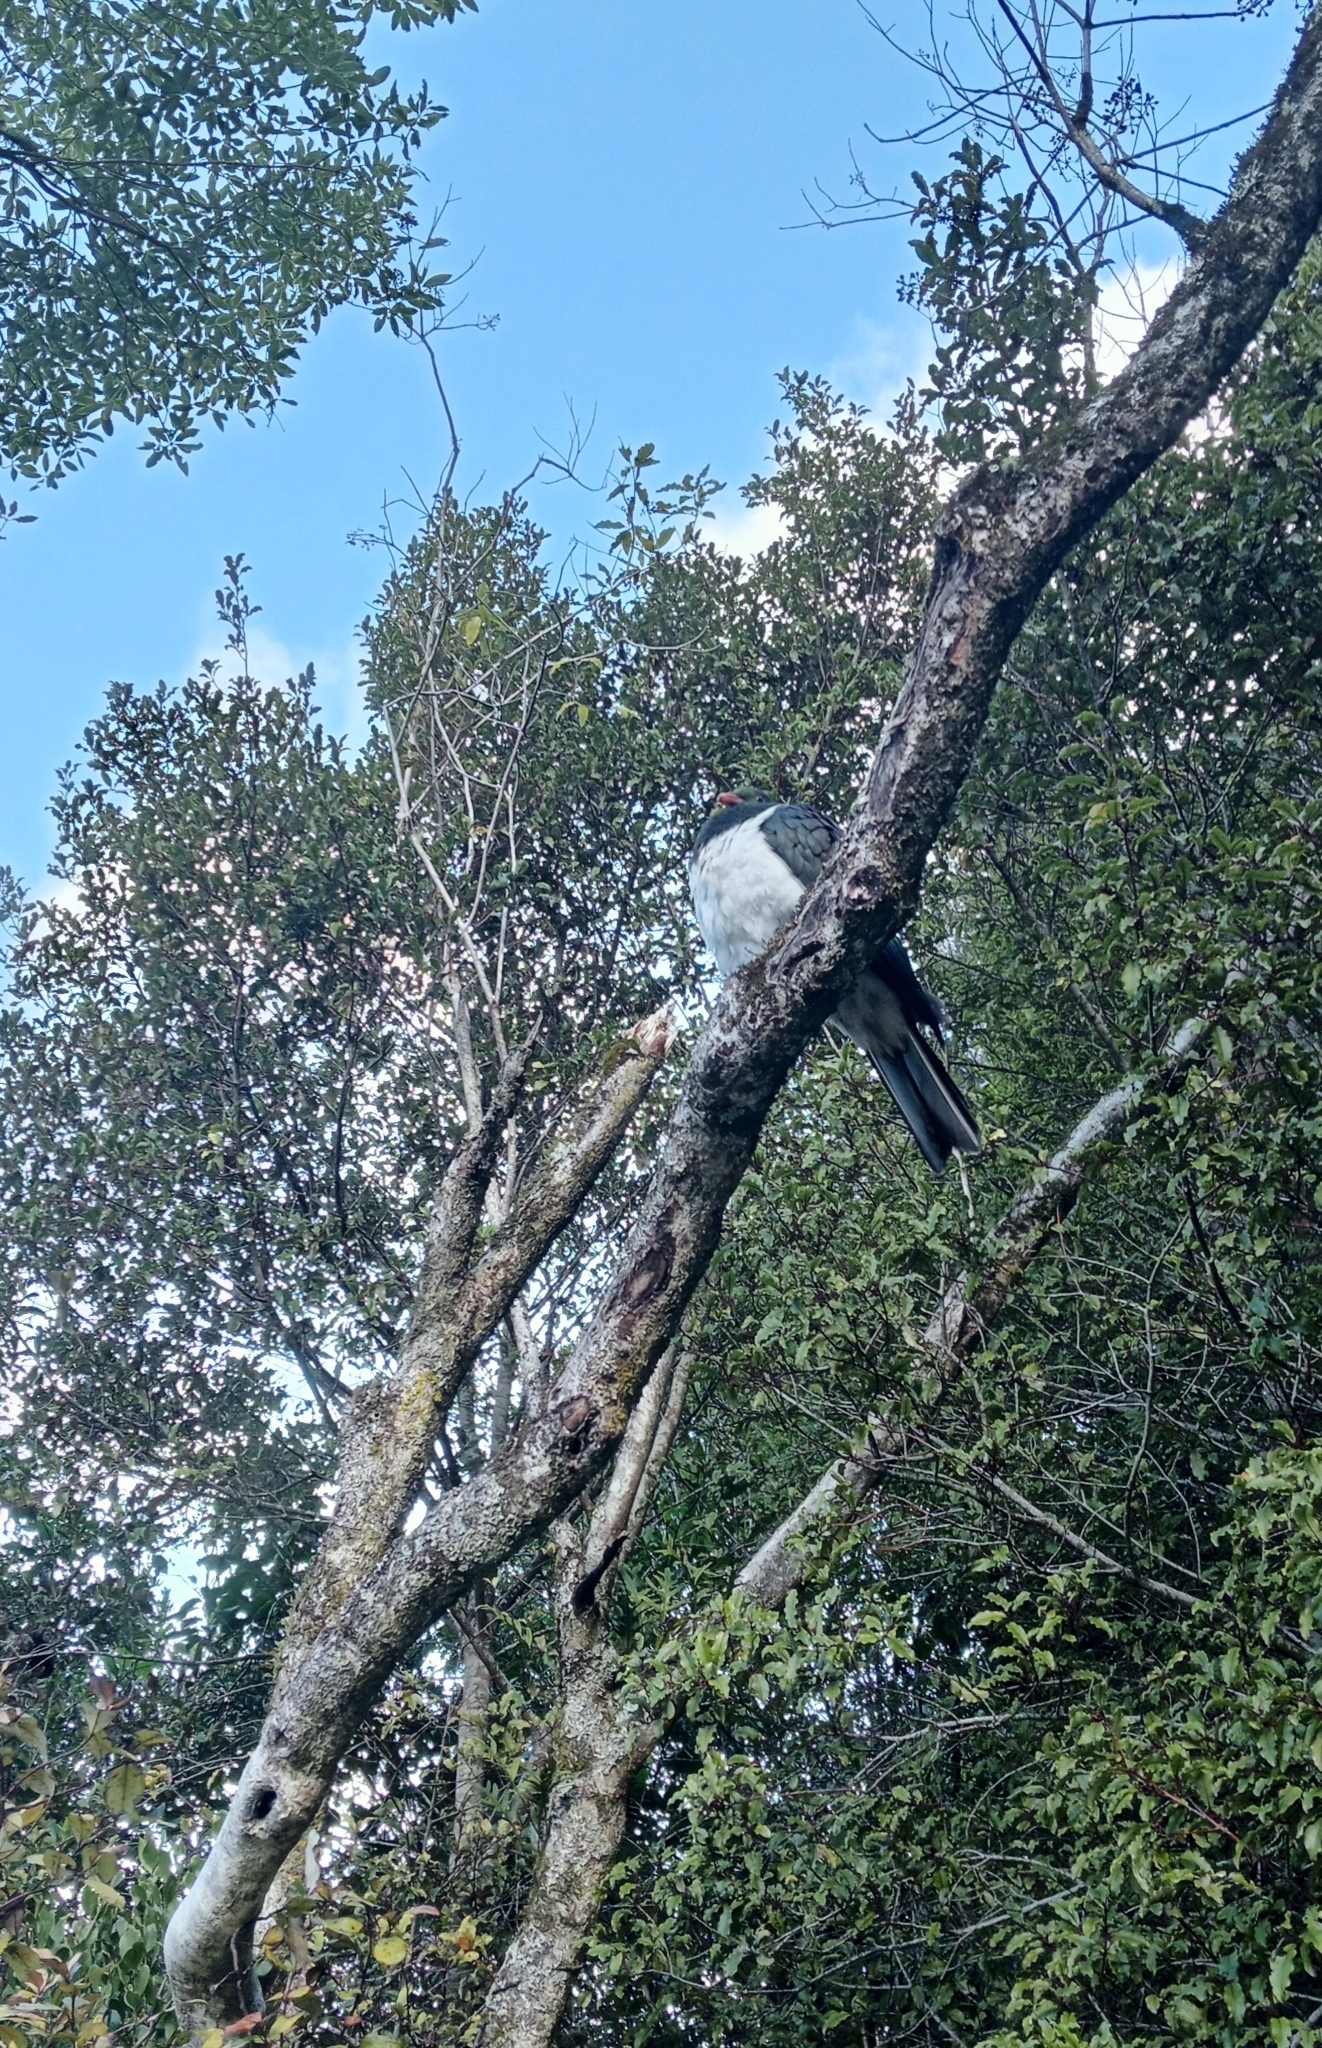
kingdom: Animalia
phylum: Chordata
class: Aves
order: Columbiformes
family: Columbidae
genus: Hemiphaga
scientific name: Hemiphaga novaeseelandiae
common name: New zealand pigeon
